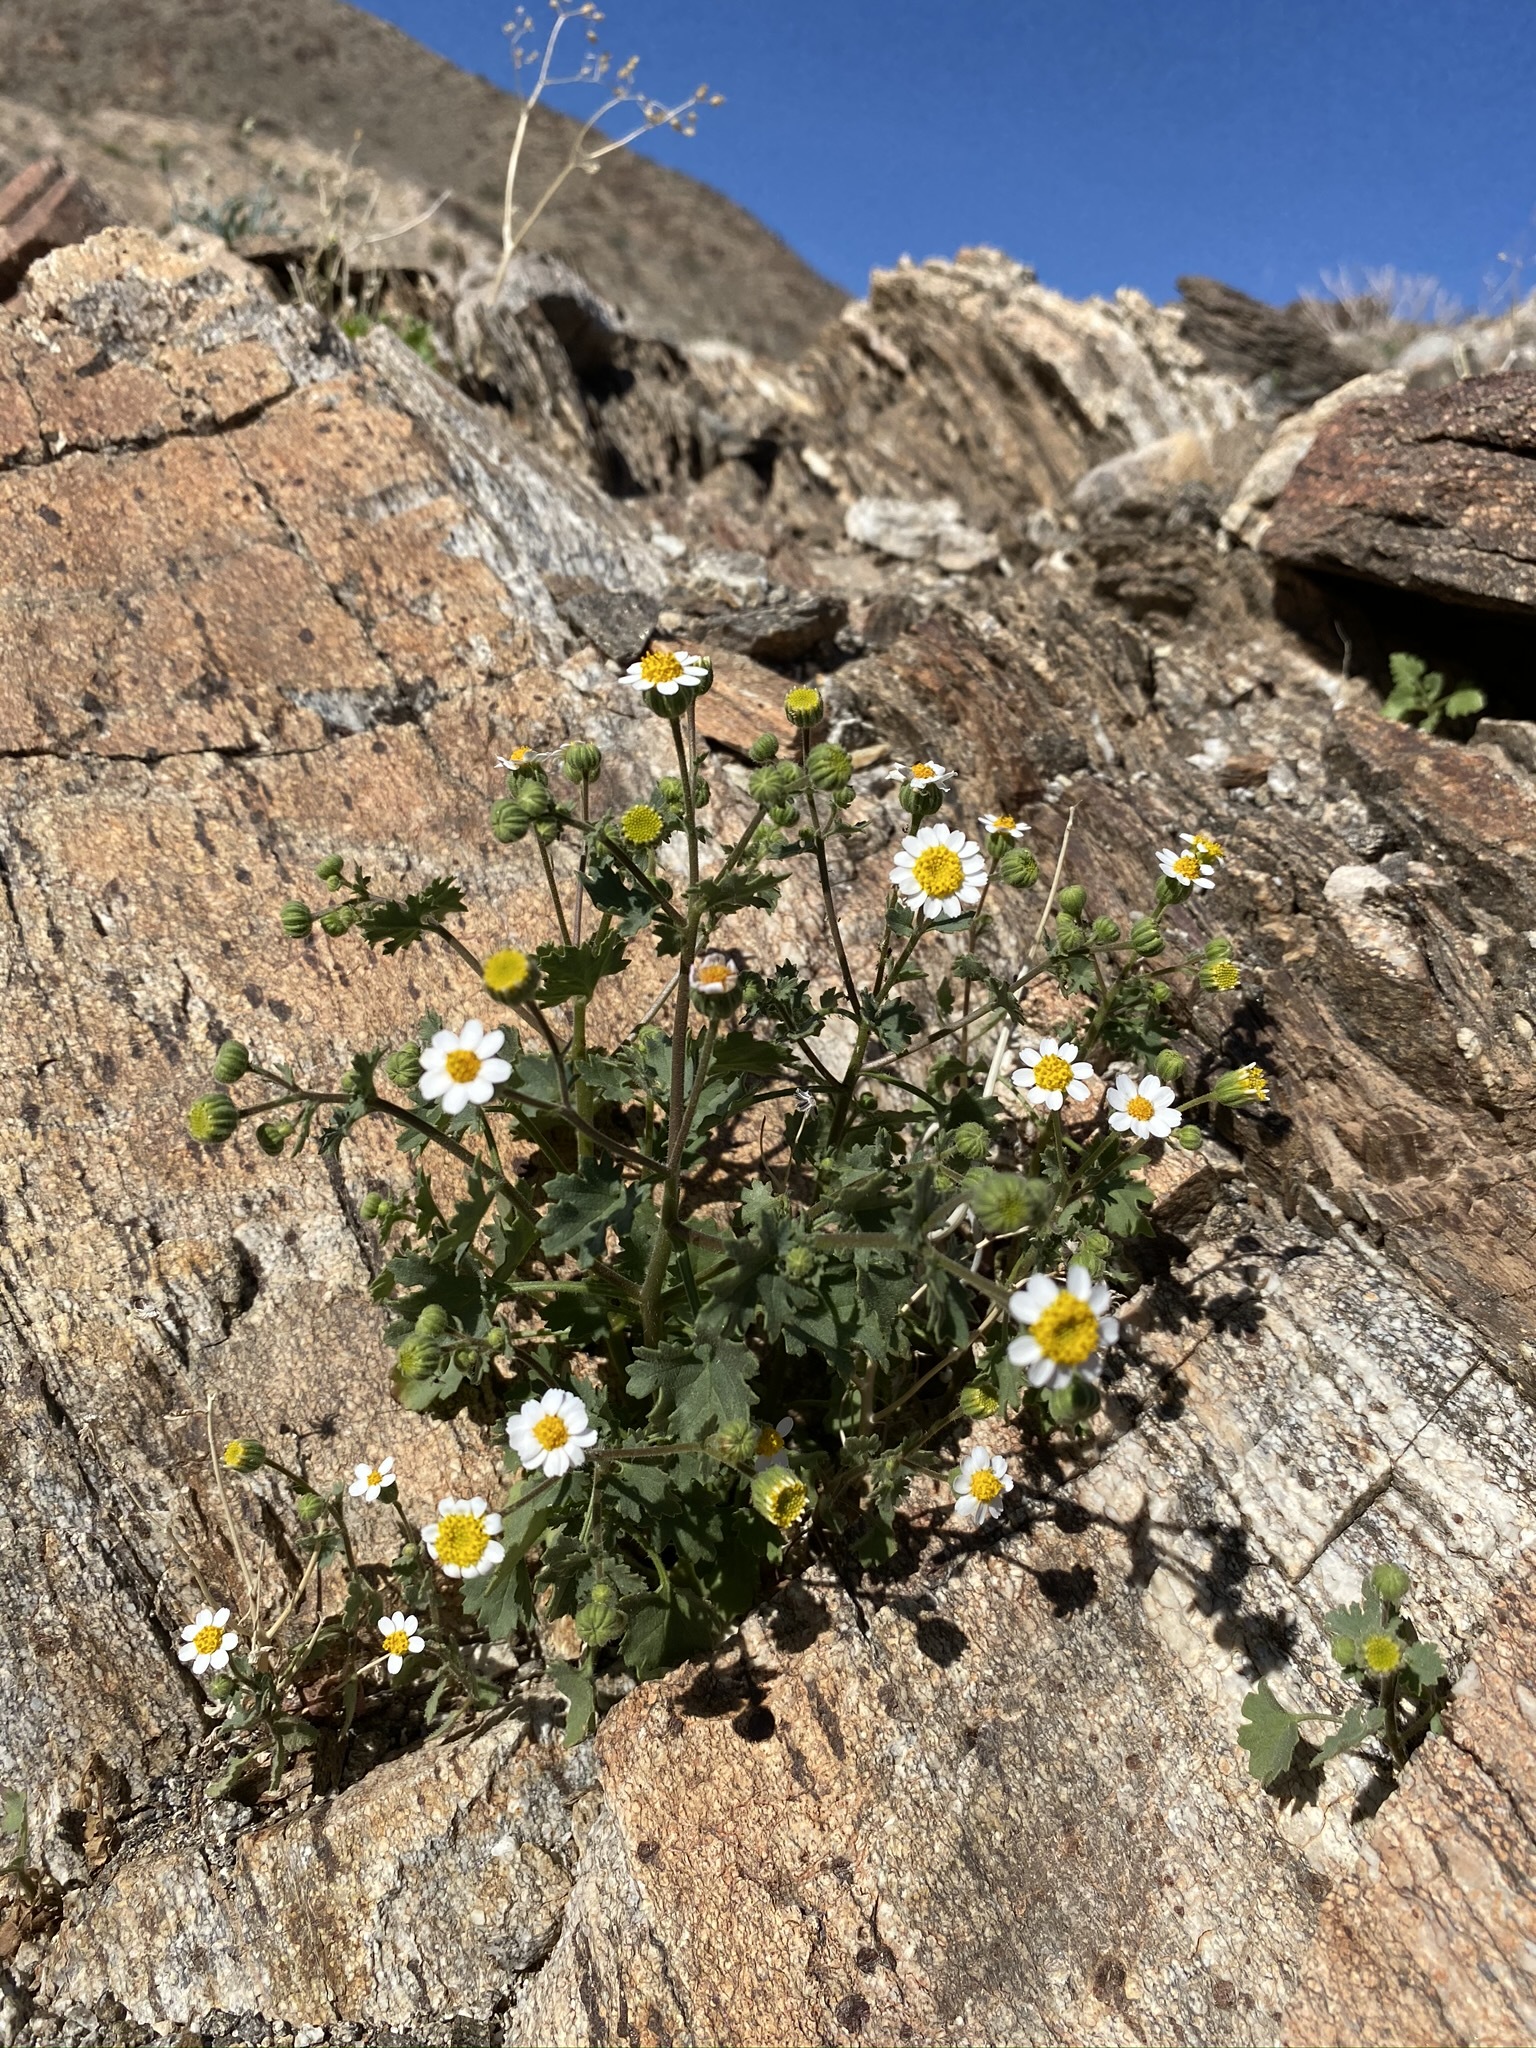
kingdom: Plantae
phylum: Tracheophyta
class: Magnoliopsida
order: Asterales
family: Asteraceae
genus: Laphamia
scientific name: Laphamia emoryi
